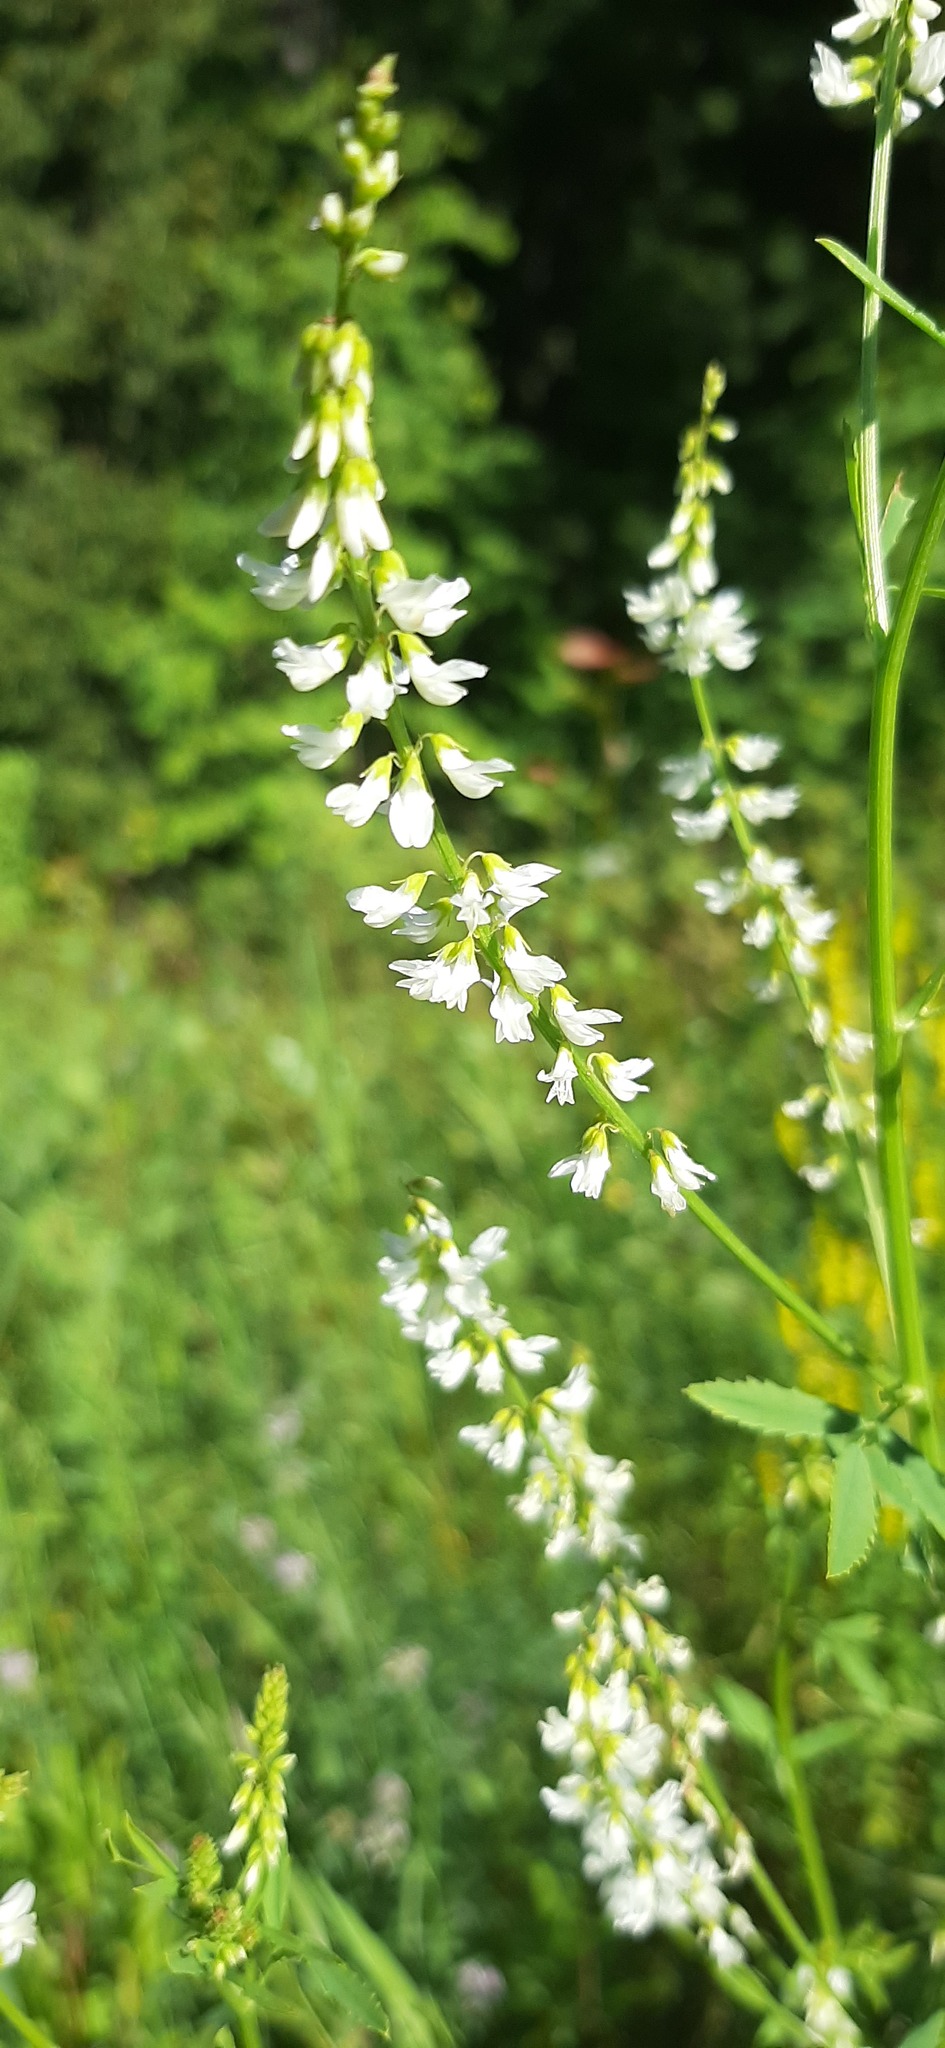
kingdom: Plantae
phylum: Tracheophyta
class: Magnoliopsida
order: Fabales
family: Fabaceae
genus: Melilotus
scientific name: Melilotus albus
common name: White melilot
